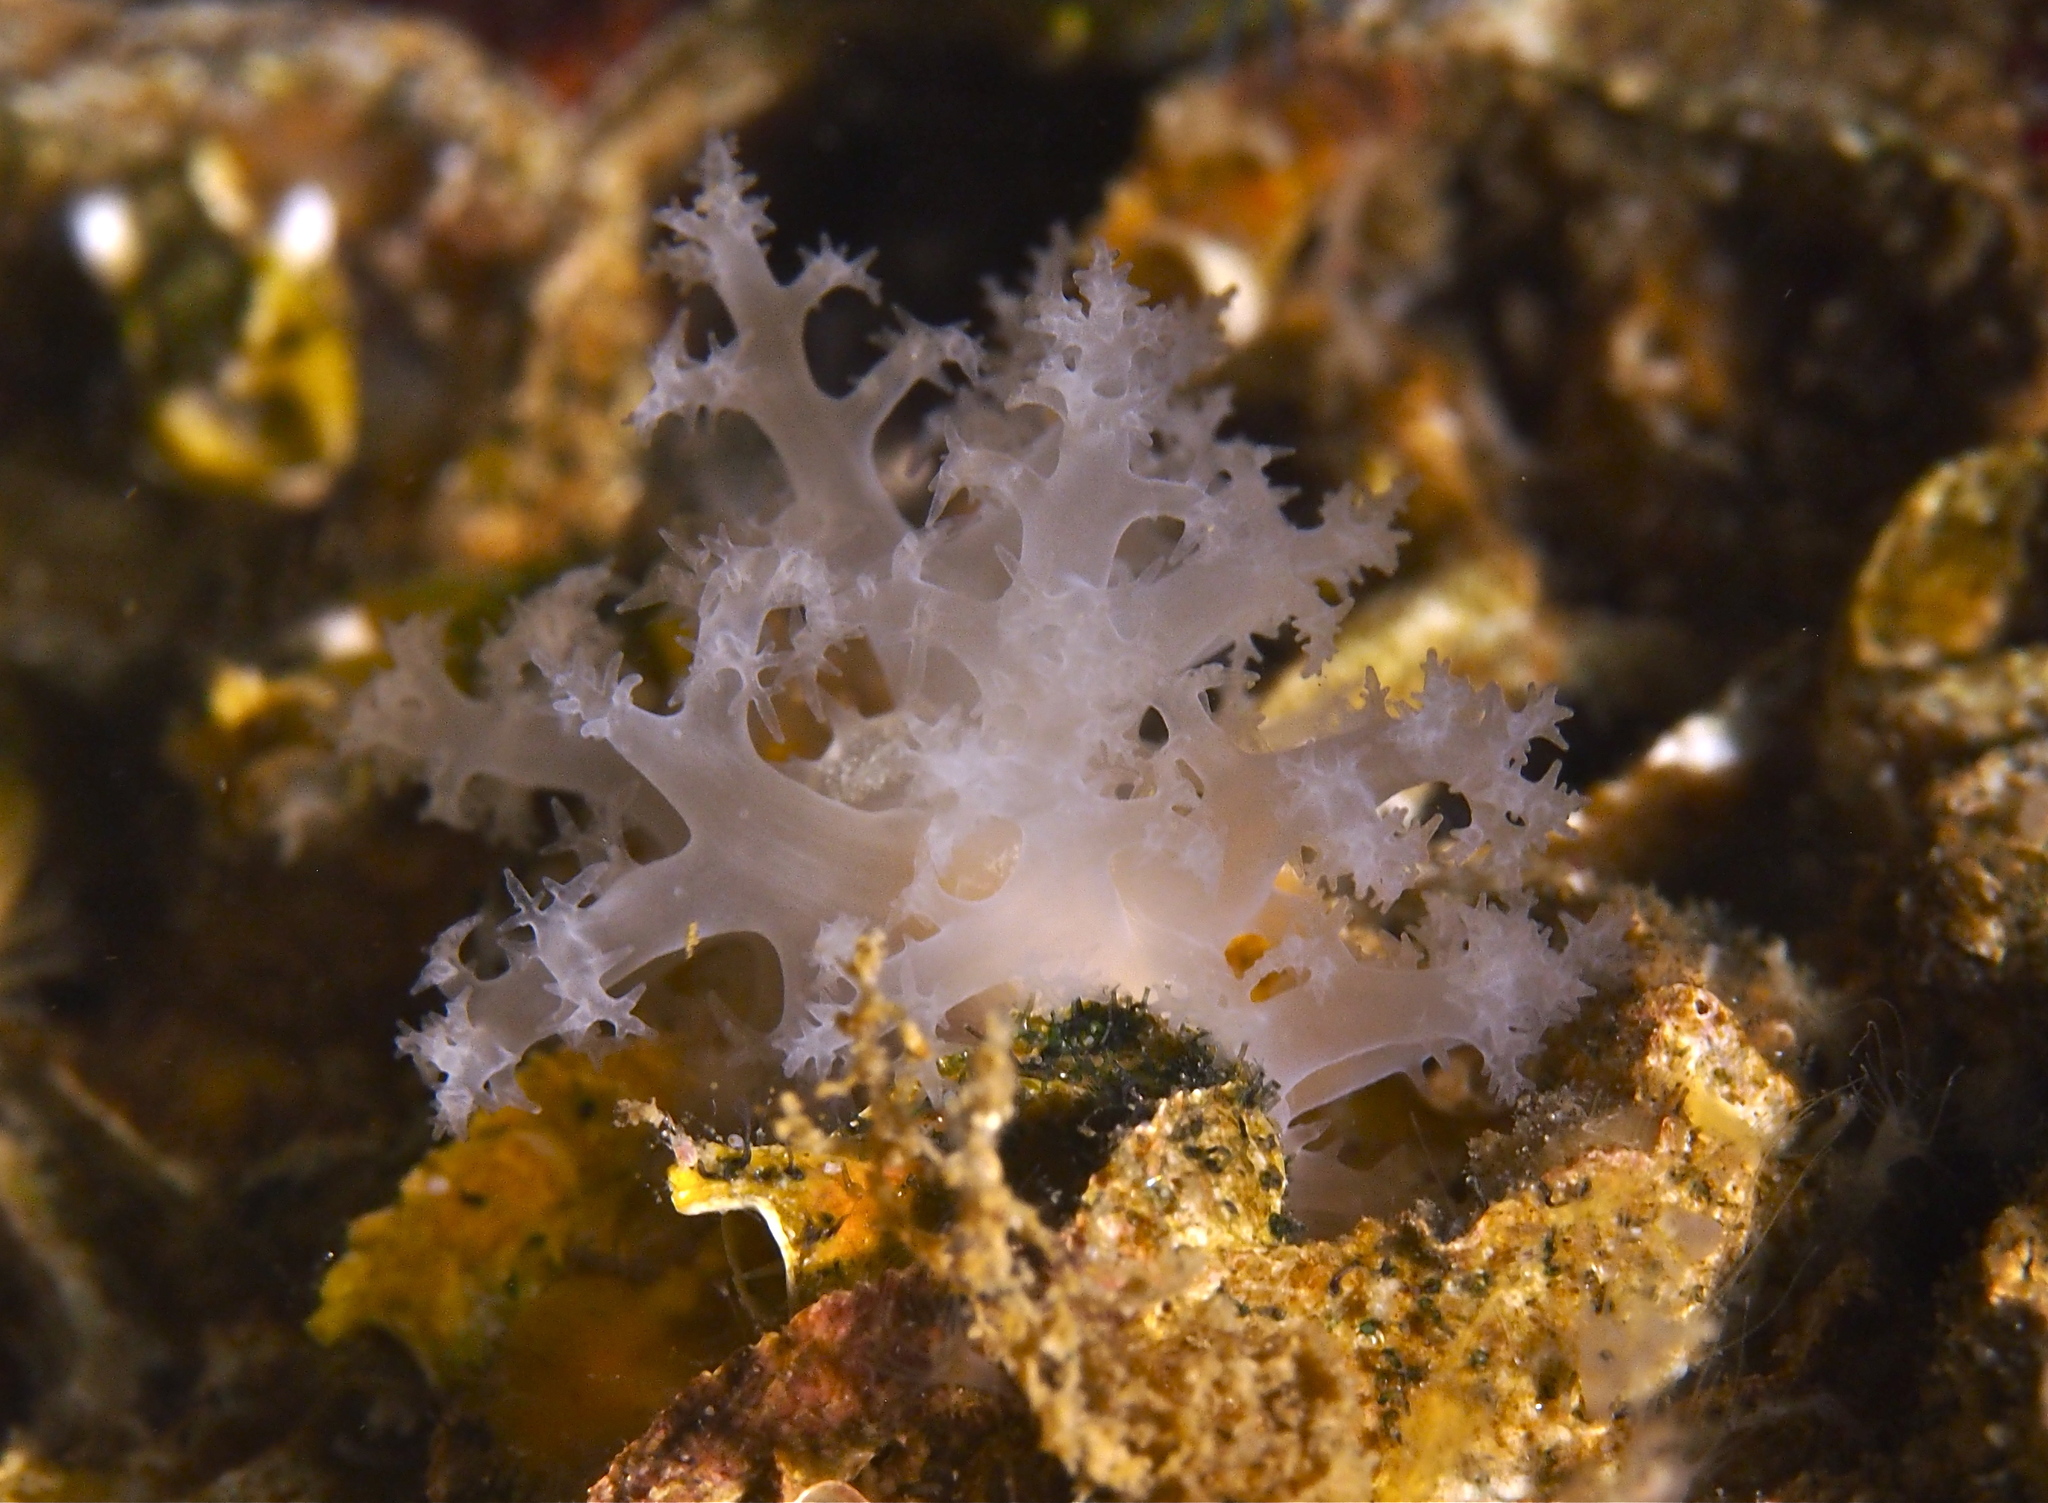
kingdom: Animalia
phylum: Mollusca
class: Gastropoda
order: Nudibranchia
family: Dendronotidae
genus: Dendronotus
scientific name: Dendronotus lacteus
